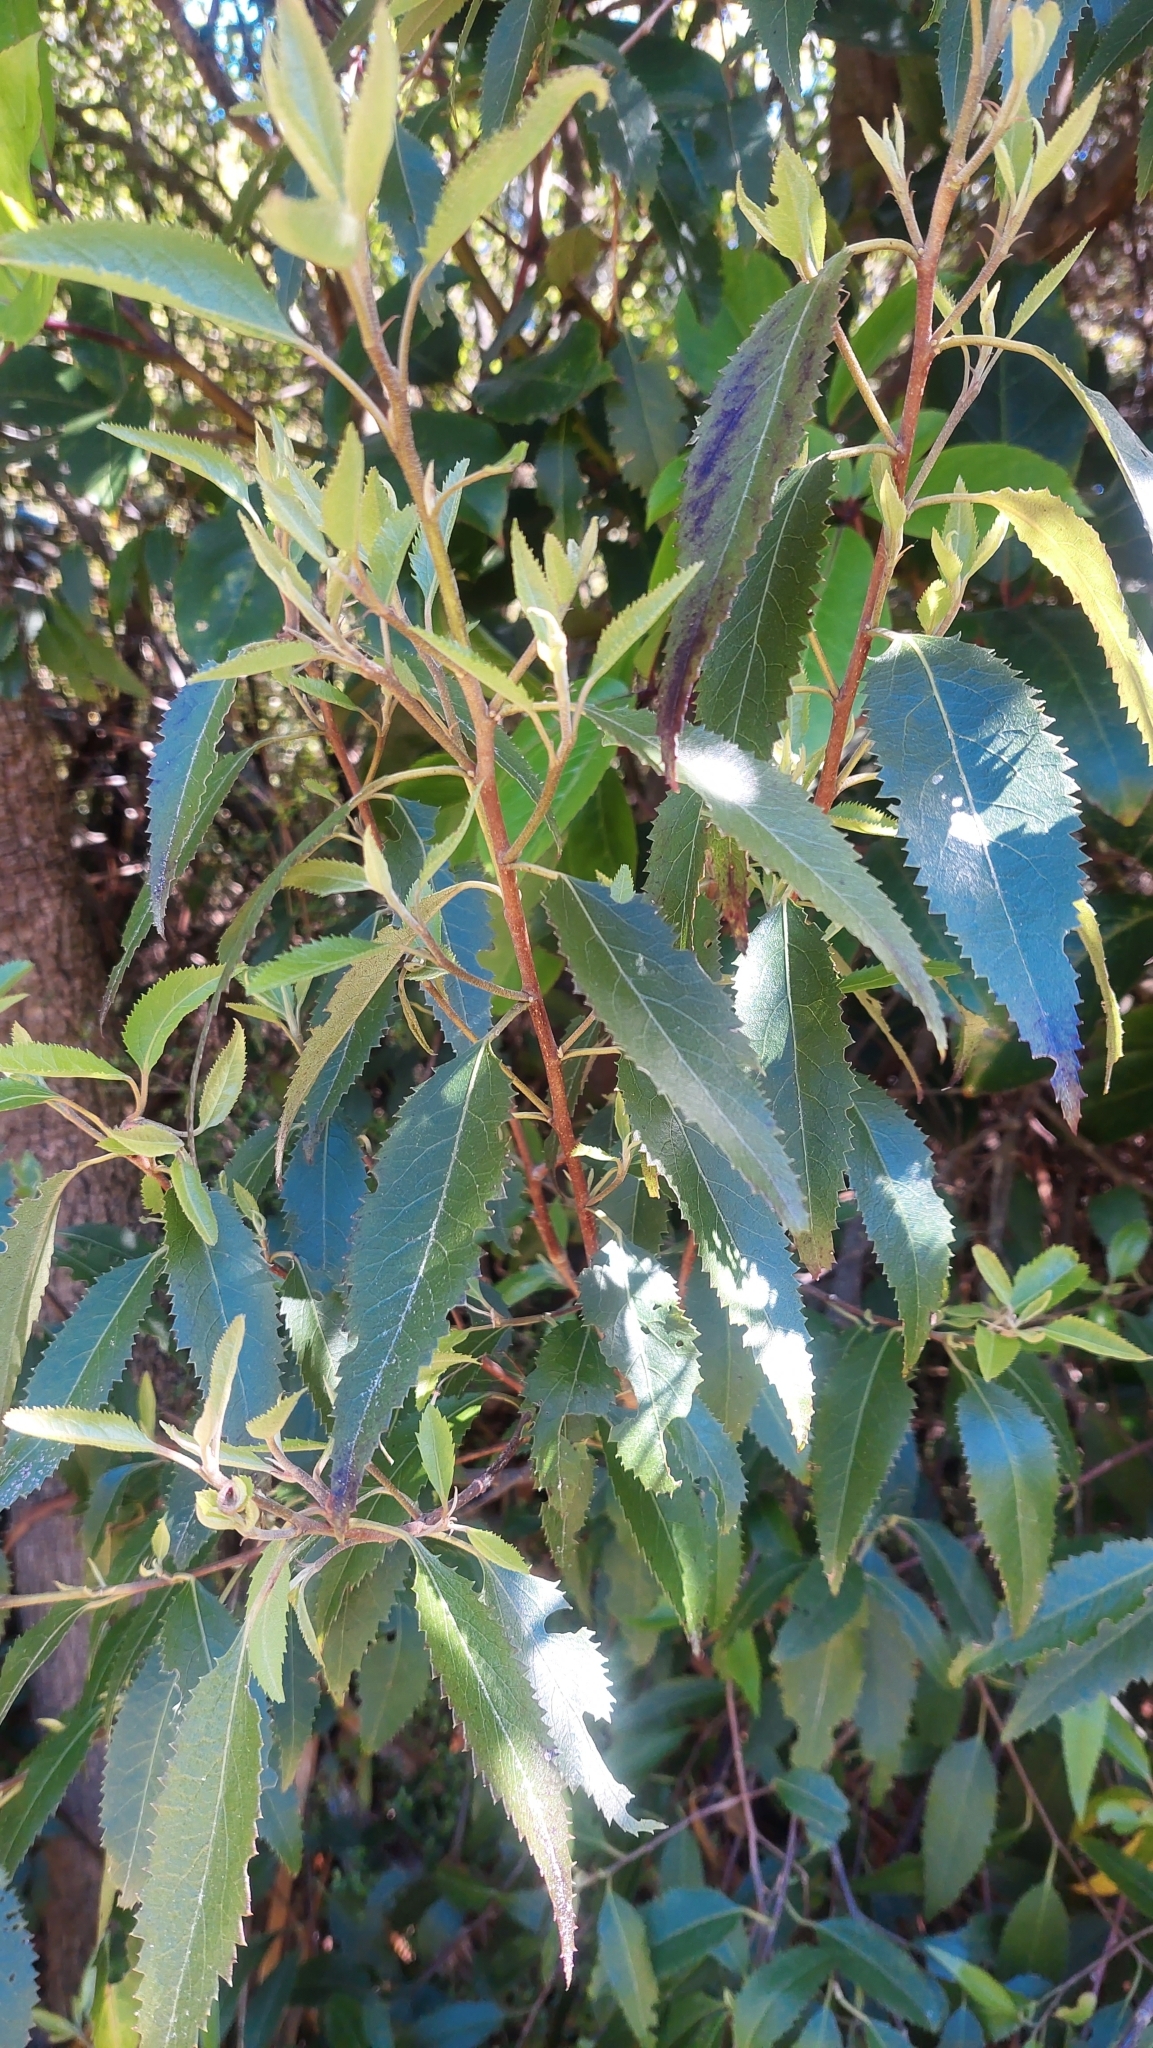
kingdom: Plantae
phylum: Tracheophyta
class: Magnoliopsida
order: Malvales
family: Malvaceae
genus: Hoheria
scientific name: Hoheria sexstylosa
